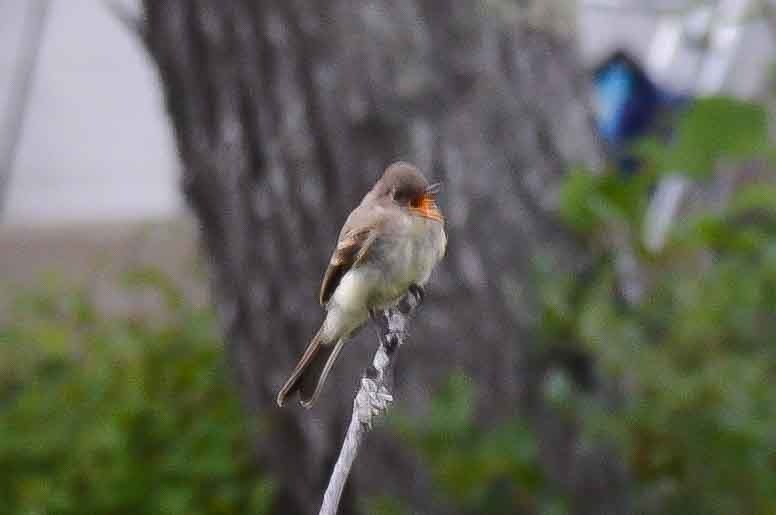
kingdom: Animalia
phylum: Chordata
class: Aves
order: Passeriformes
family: Tyrannidae
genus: Contopus
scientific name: Contopus virens
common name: Eastern wood-pewee
